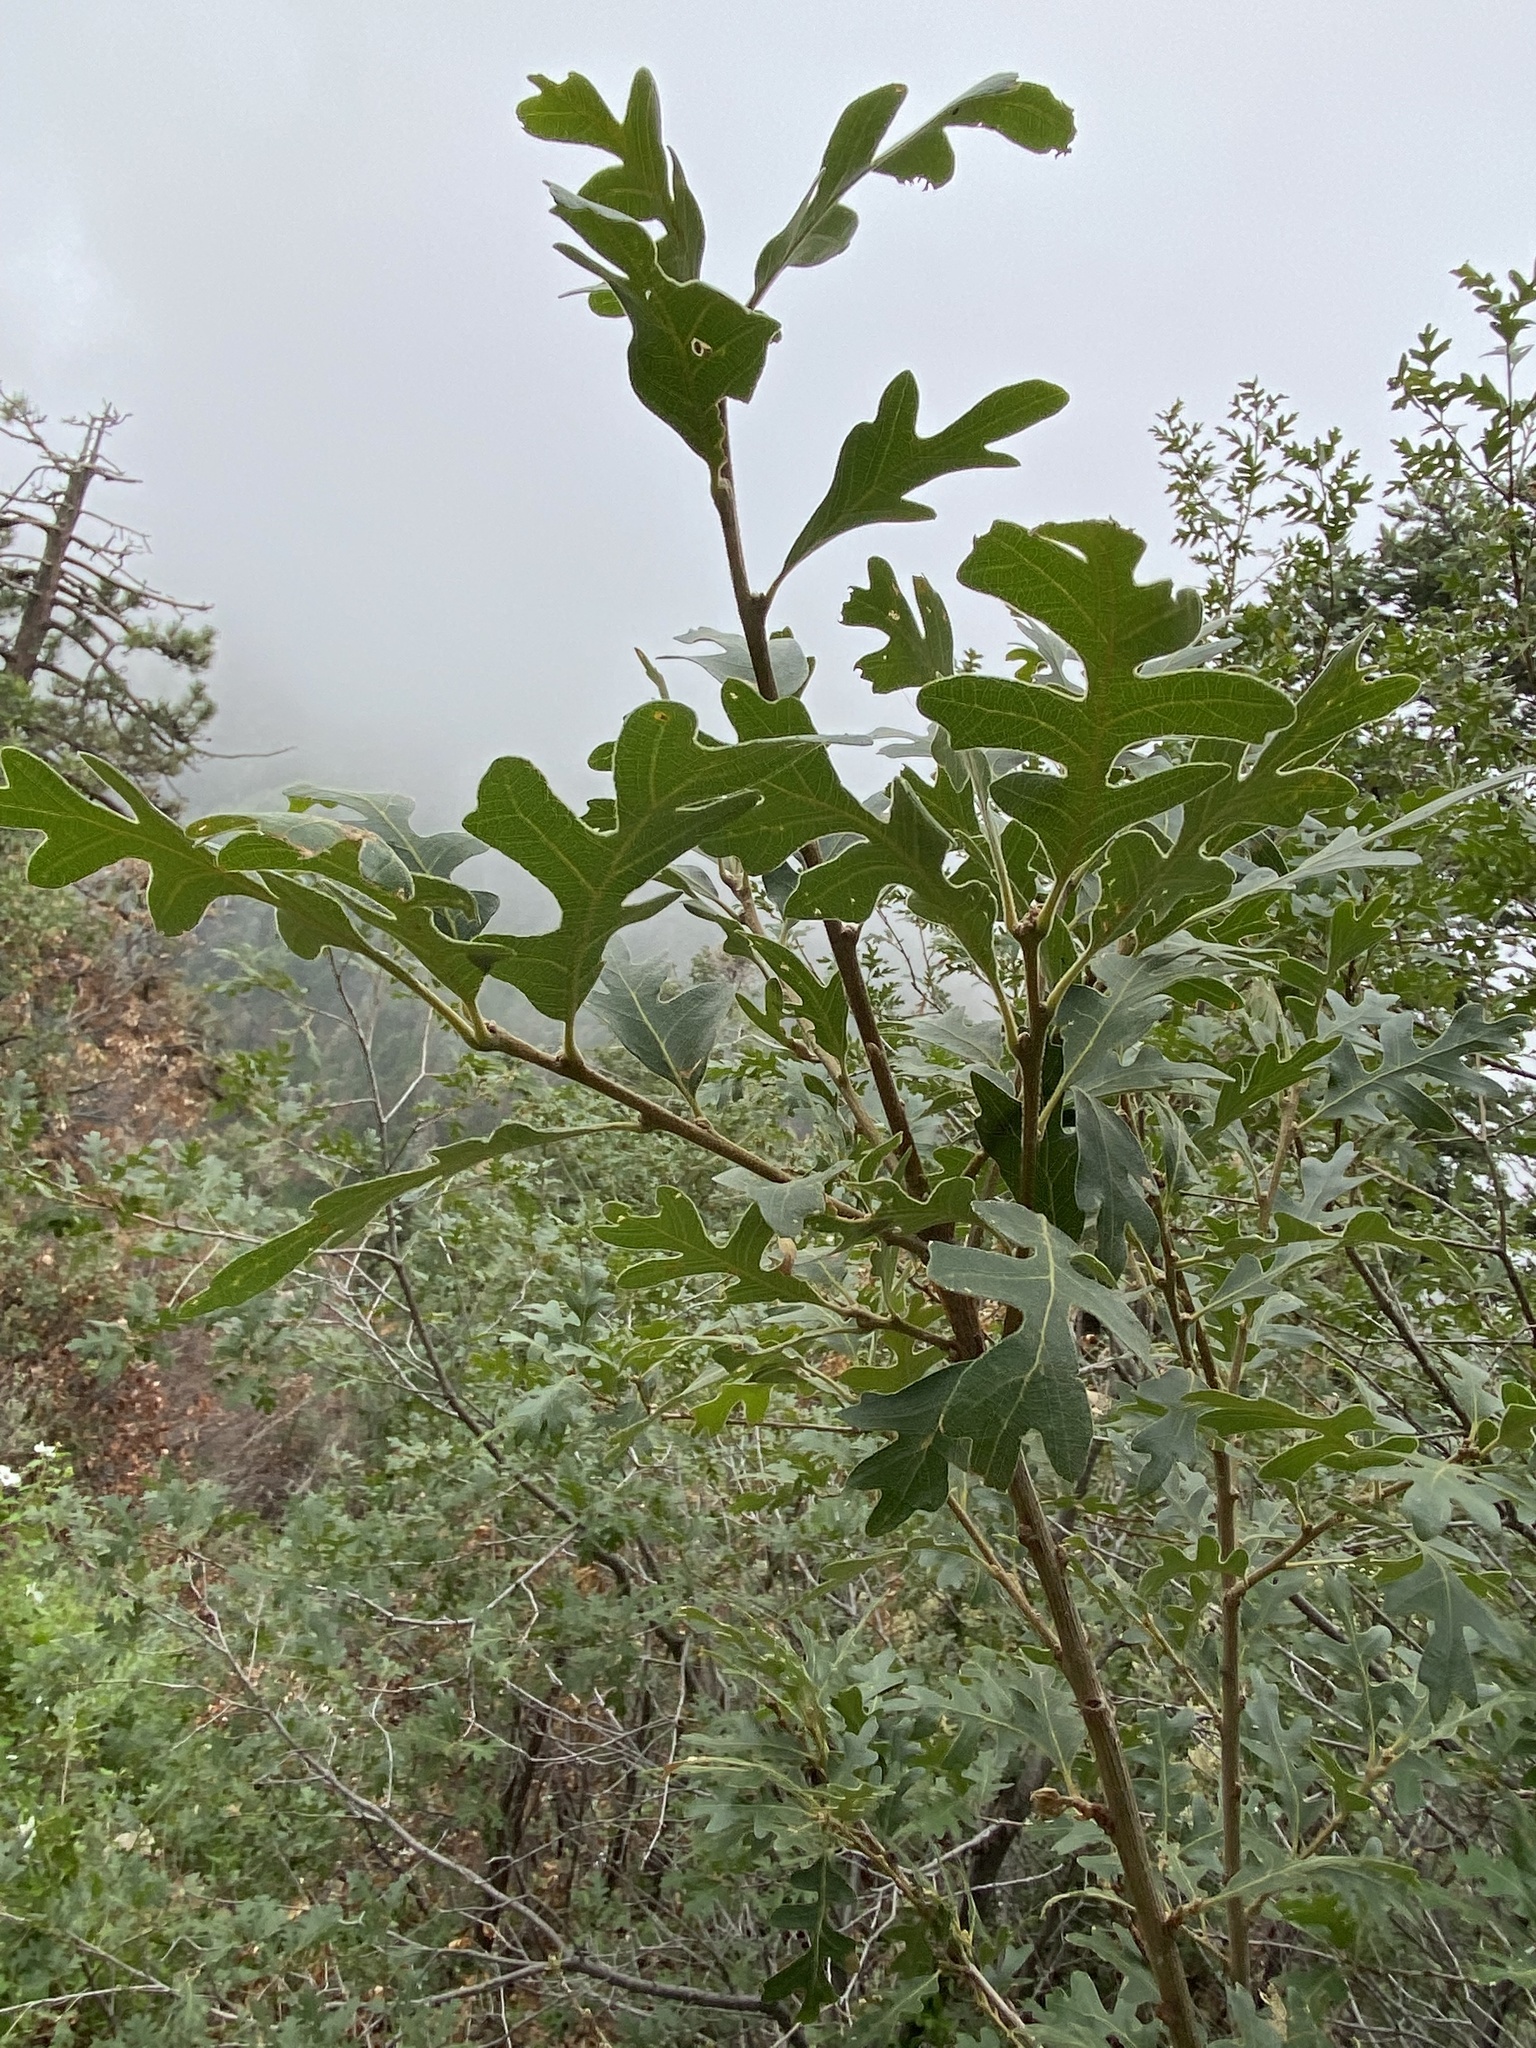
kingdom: Plantae
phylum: Tracheophyta
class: Magnoliopsida
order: Fagales
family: Fagaceae
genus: Quercus
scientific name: Quercus gambelii
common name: Gambel oak
